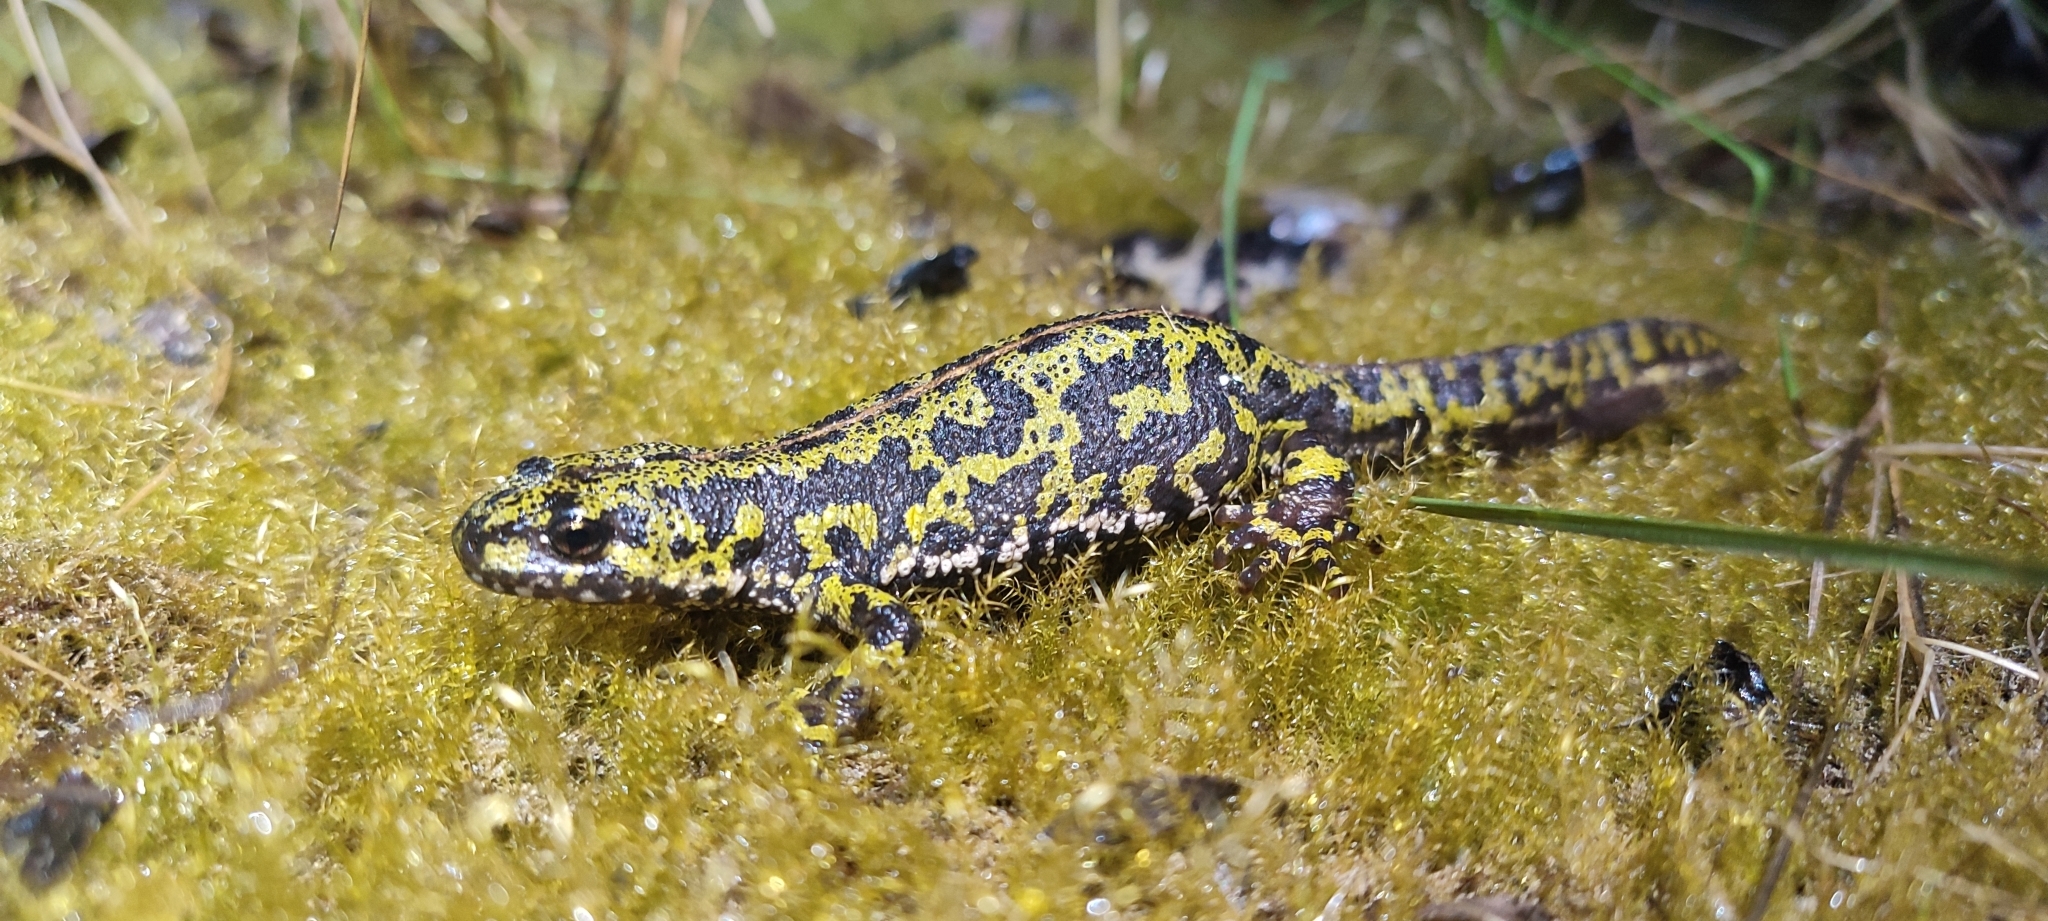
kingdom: Animalia
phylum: Chordata
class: Amphibia
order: Caudata
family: Salamandridae
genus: Triturus
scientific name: Triturus marmoratus
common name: Marbled newt
